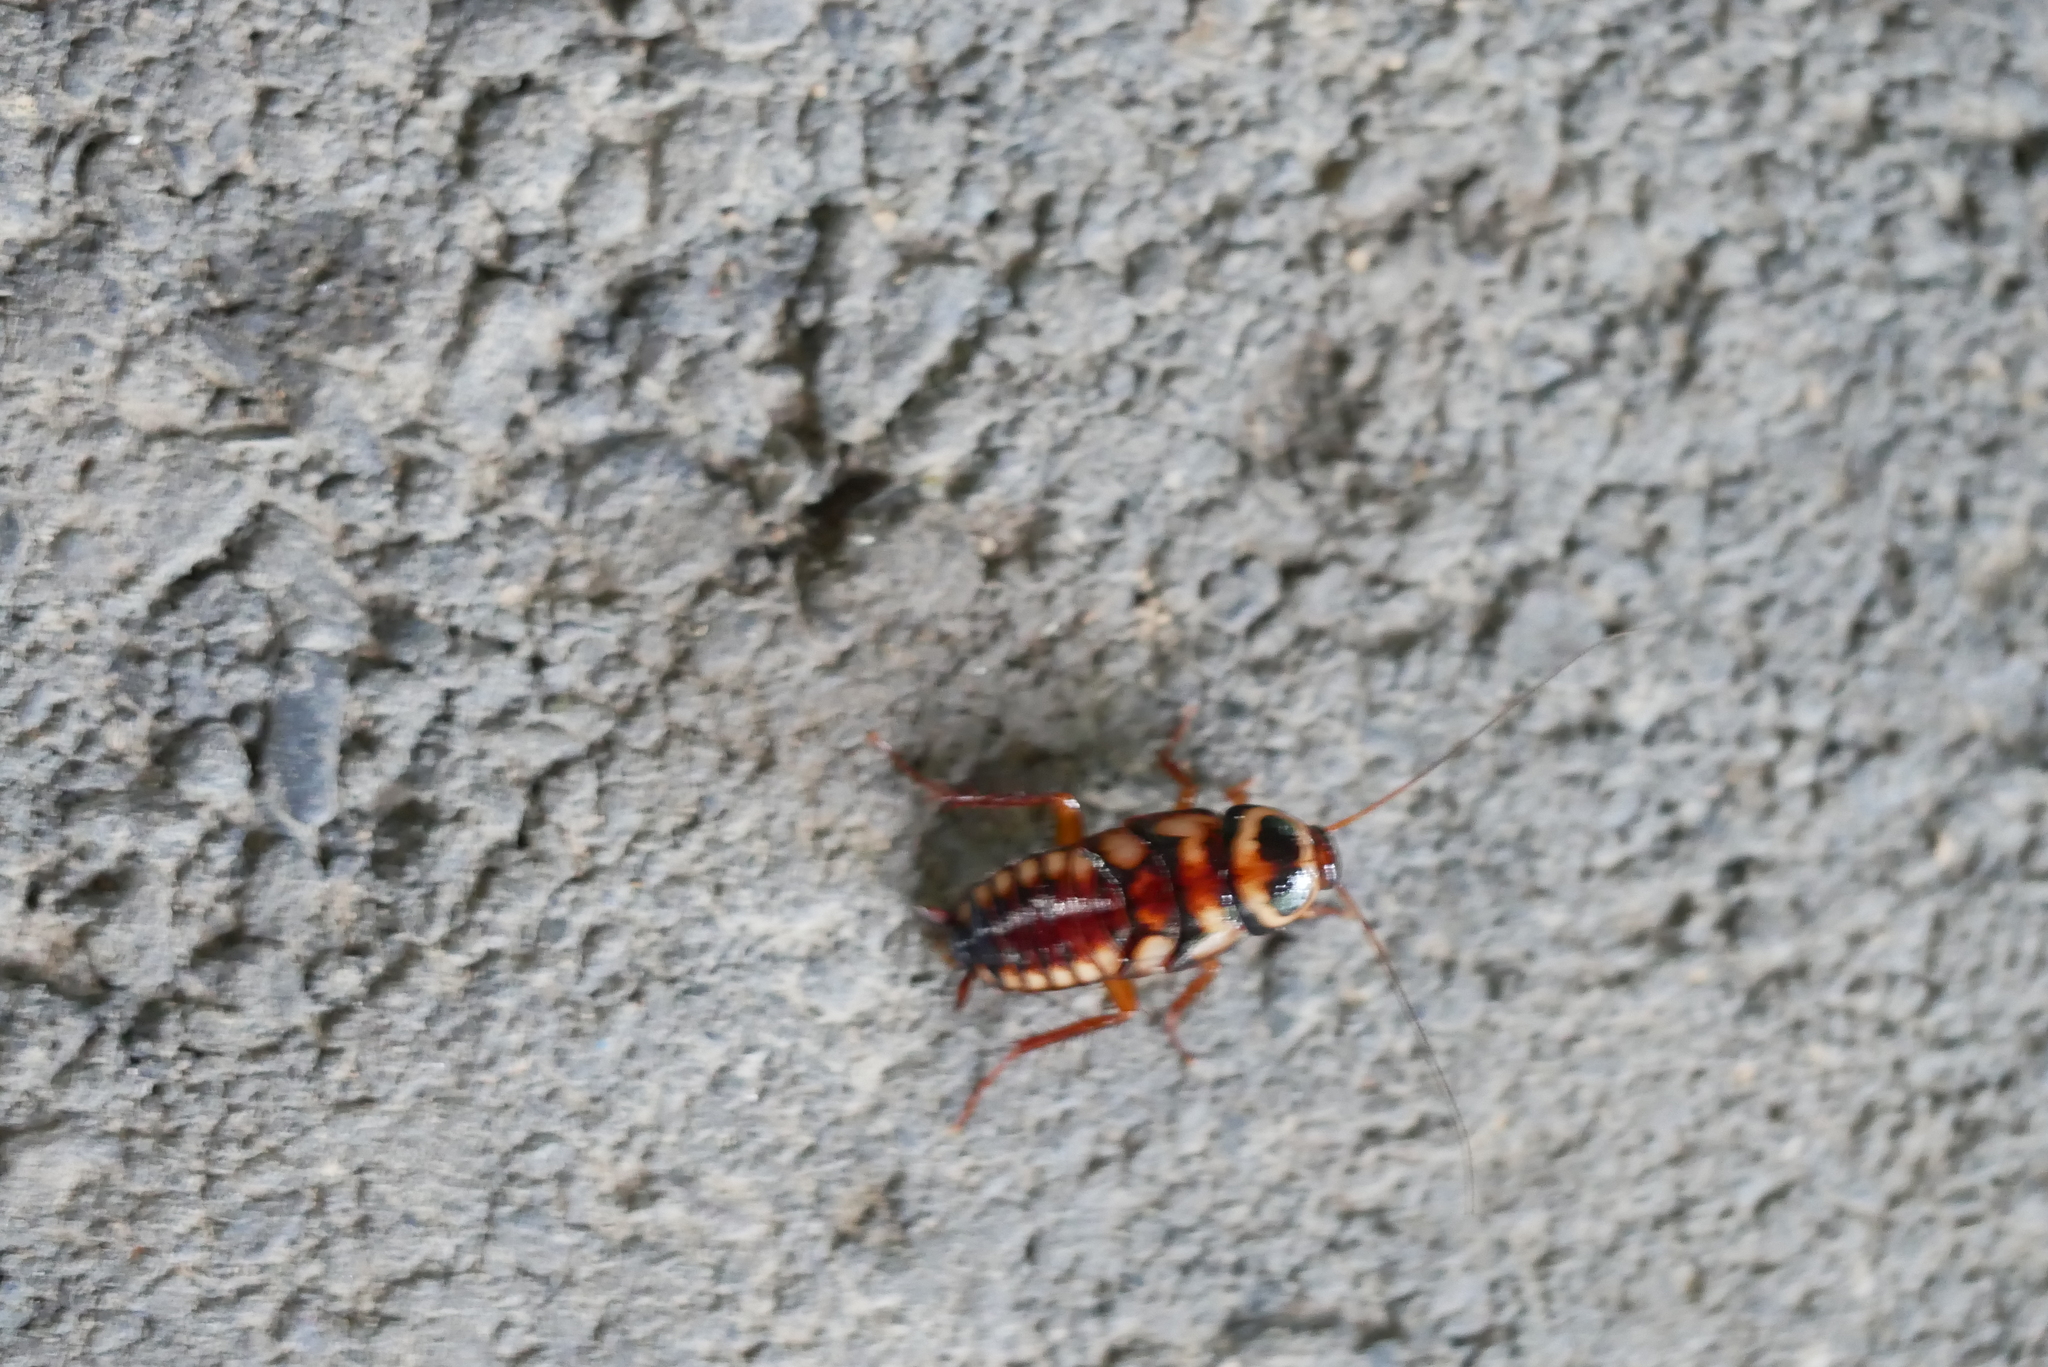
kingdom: Animalia
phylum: Arthropoda
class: Insecta
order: Blattodea
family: Blattidae
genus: Periplaneta
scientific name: Periplaneta australasiae
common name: Australian cockroach
